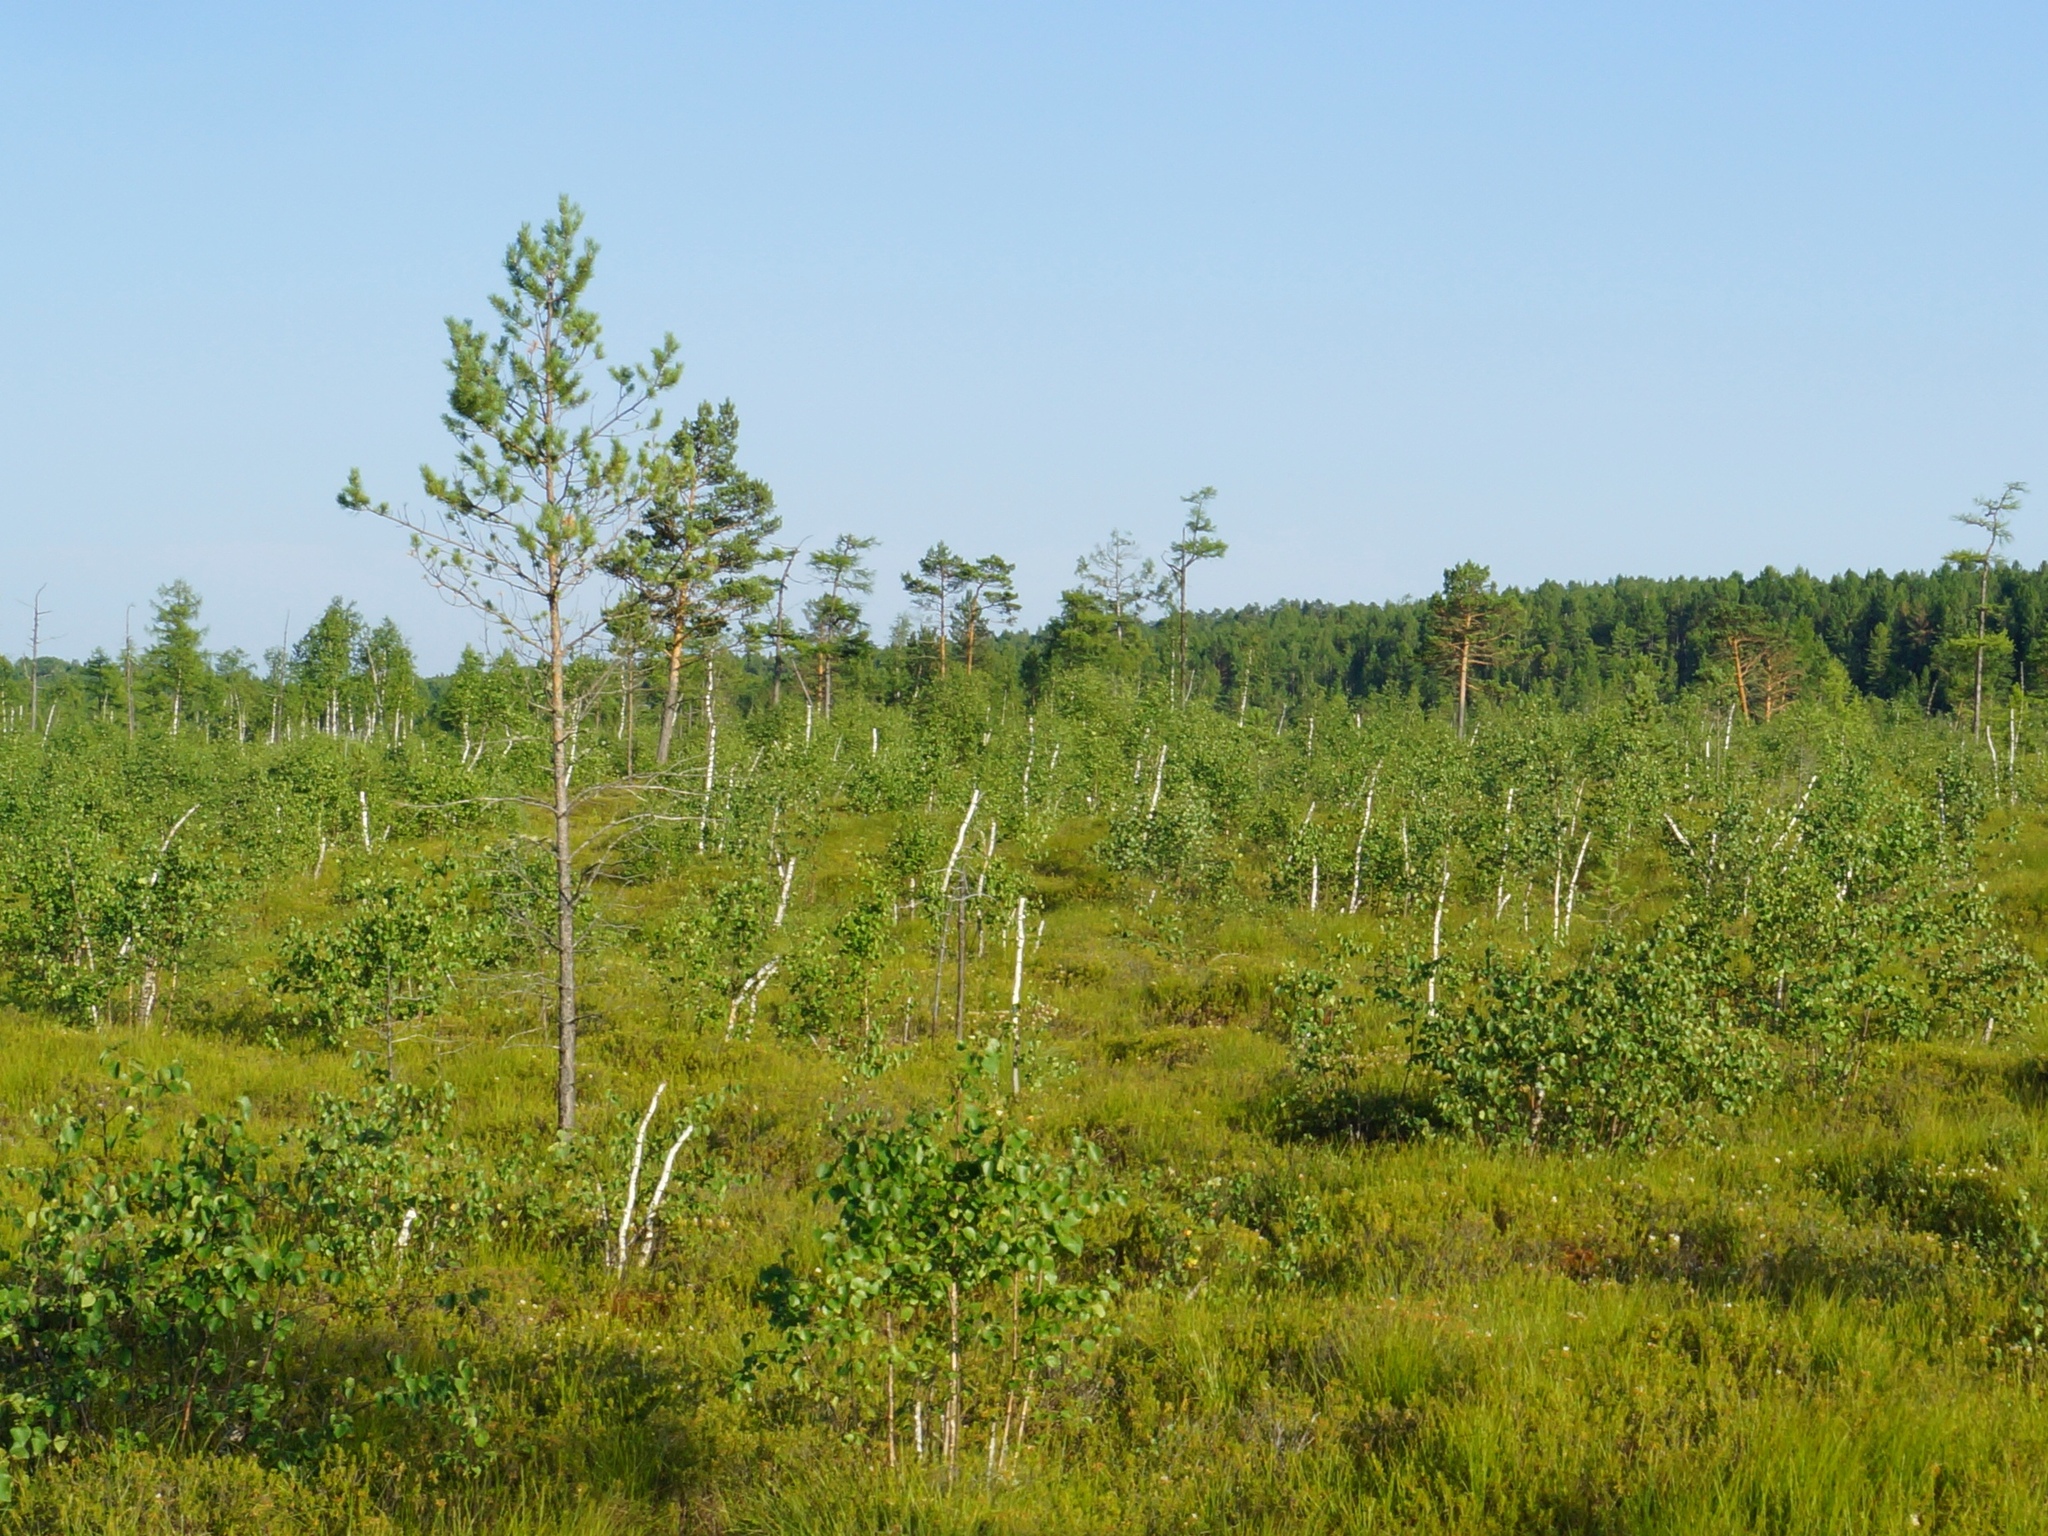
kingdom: Plantae
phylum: Tracheophyta
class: Pinopsida
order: Pinales
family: Pinaceae
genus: Pinus
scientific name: Pinus sylvestris
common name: Scots pine
